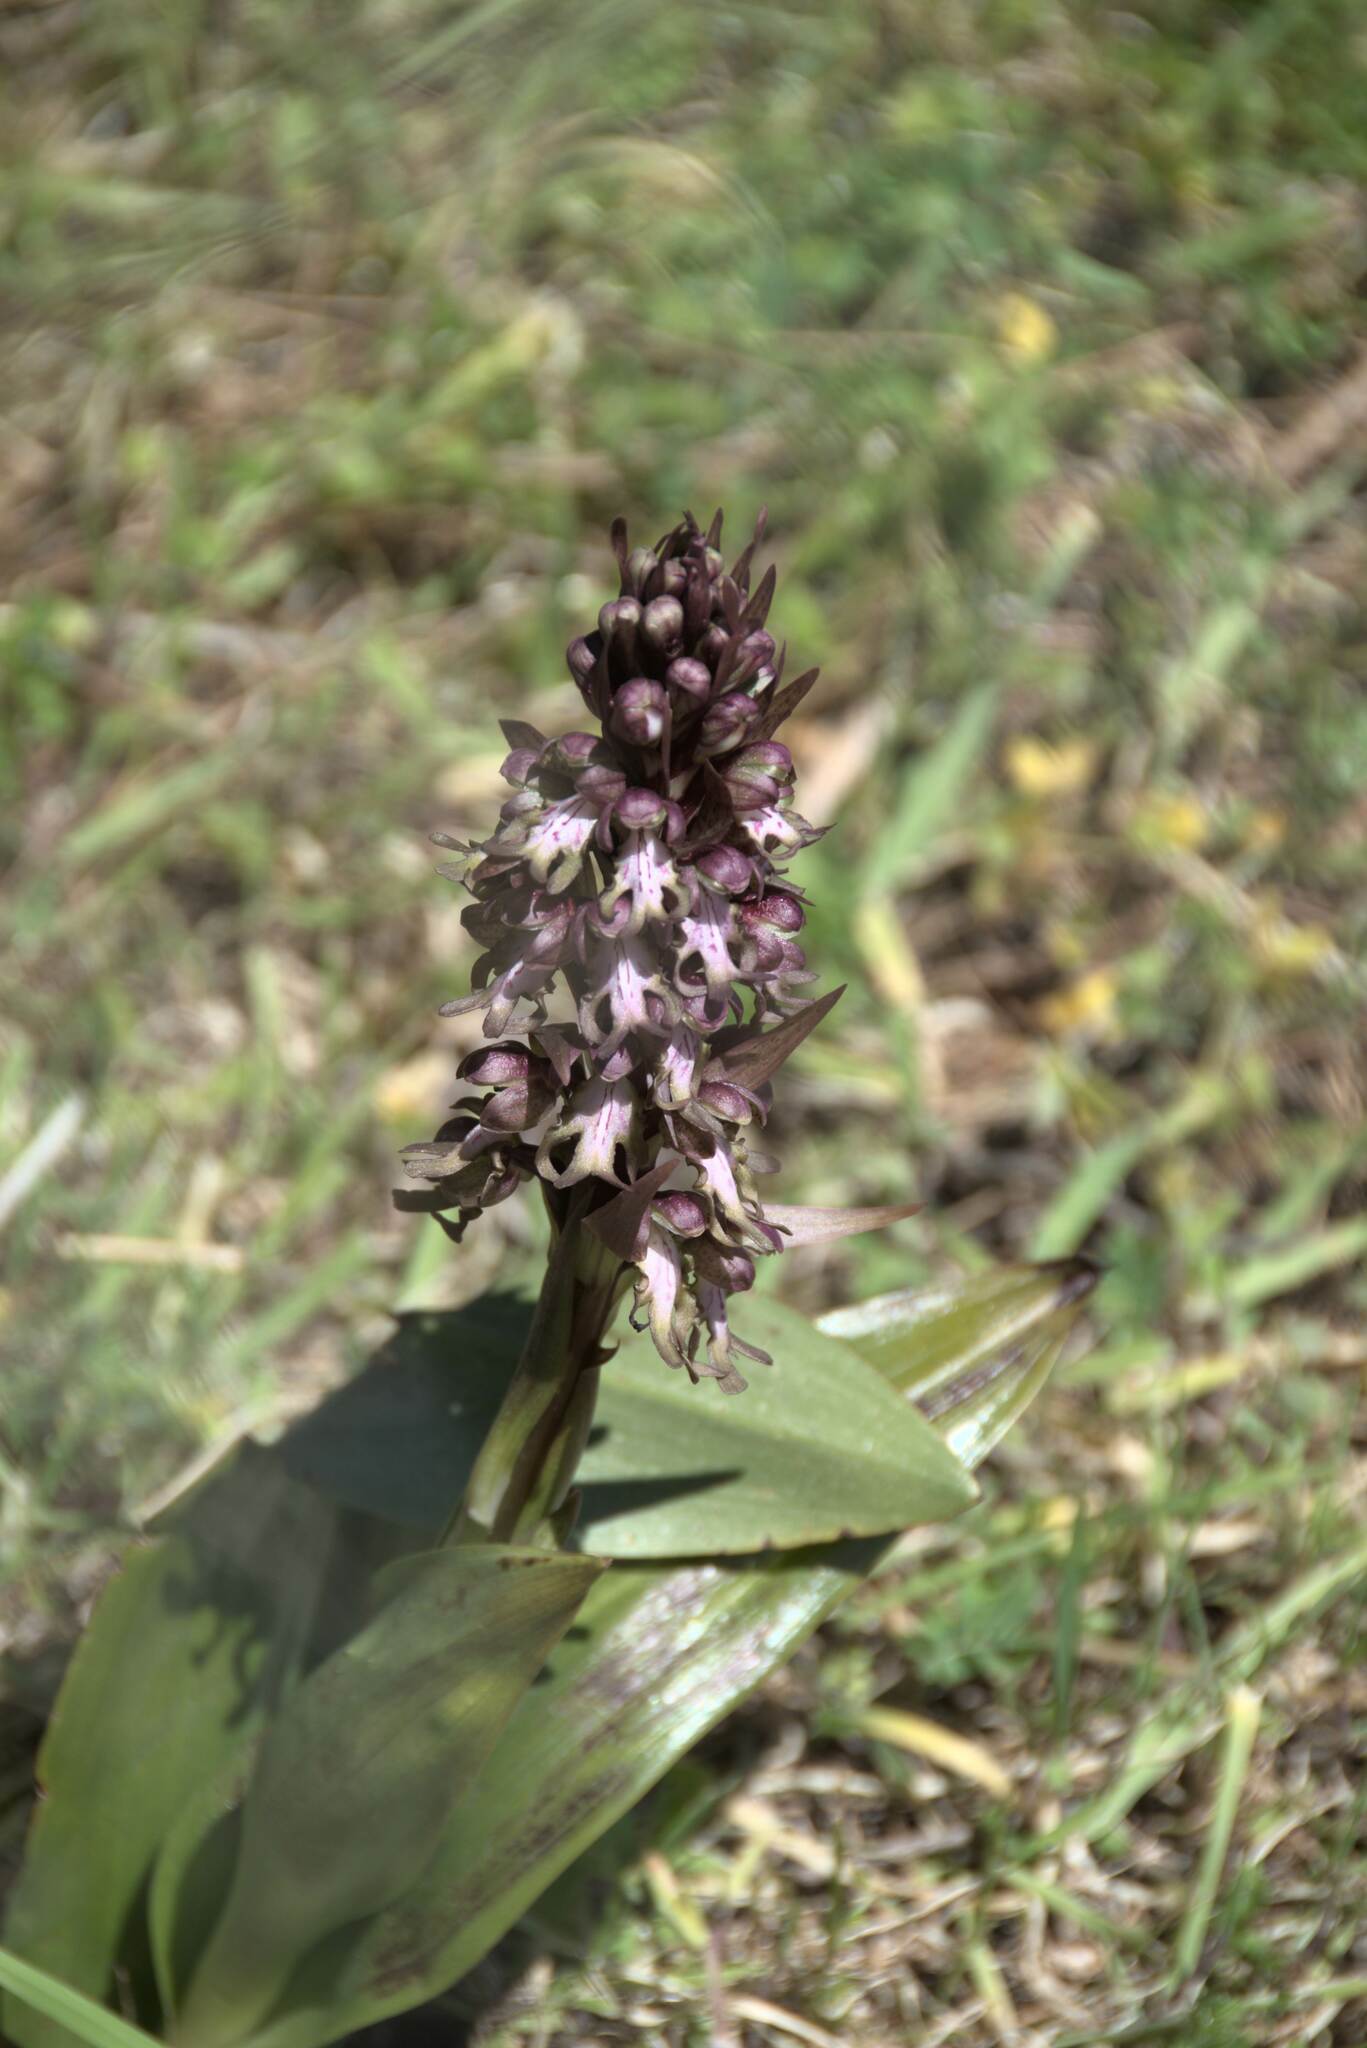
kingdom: Plantae
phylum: Tracheophyta
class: Liliopsida
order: Asparagales
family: Orchidaceae
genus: Himantoglossum
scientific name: Himantoglossum robertianum
